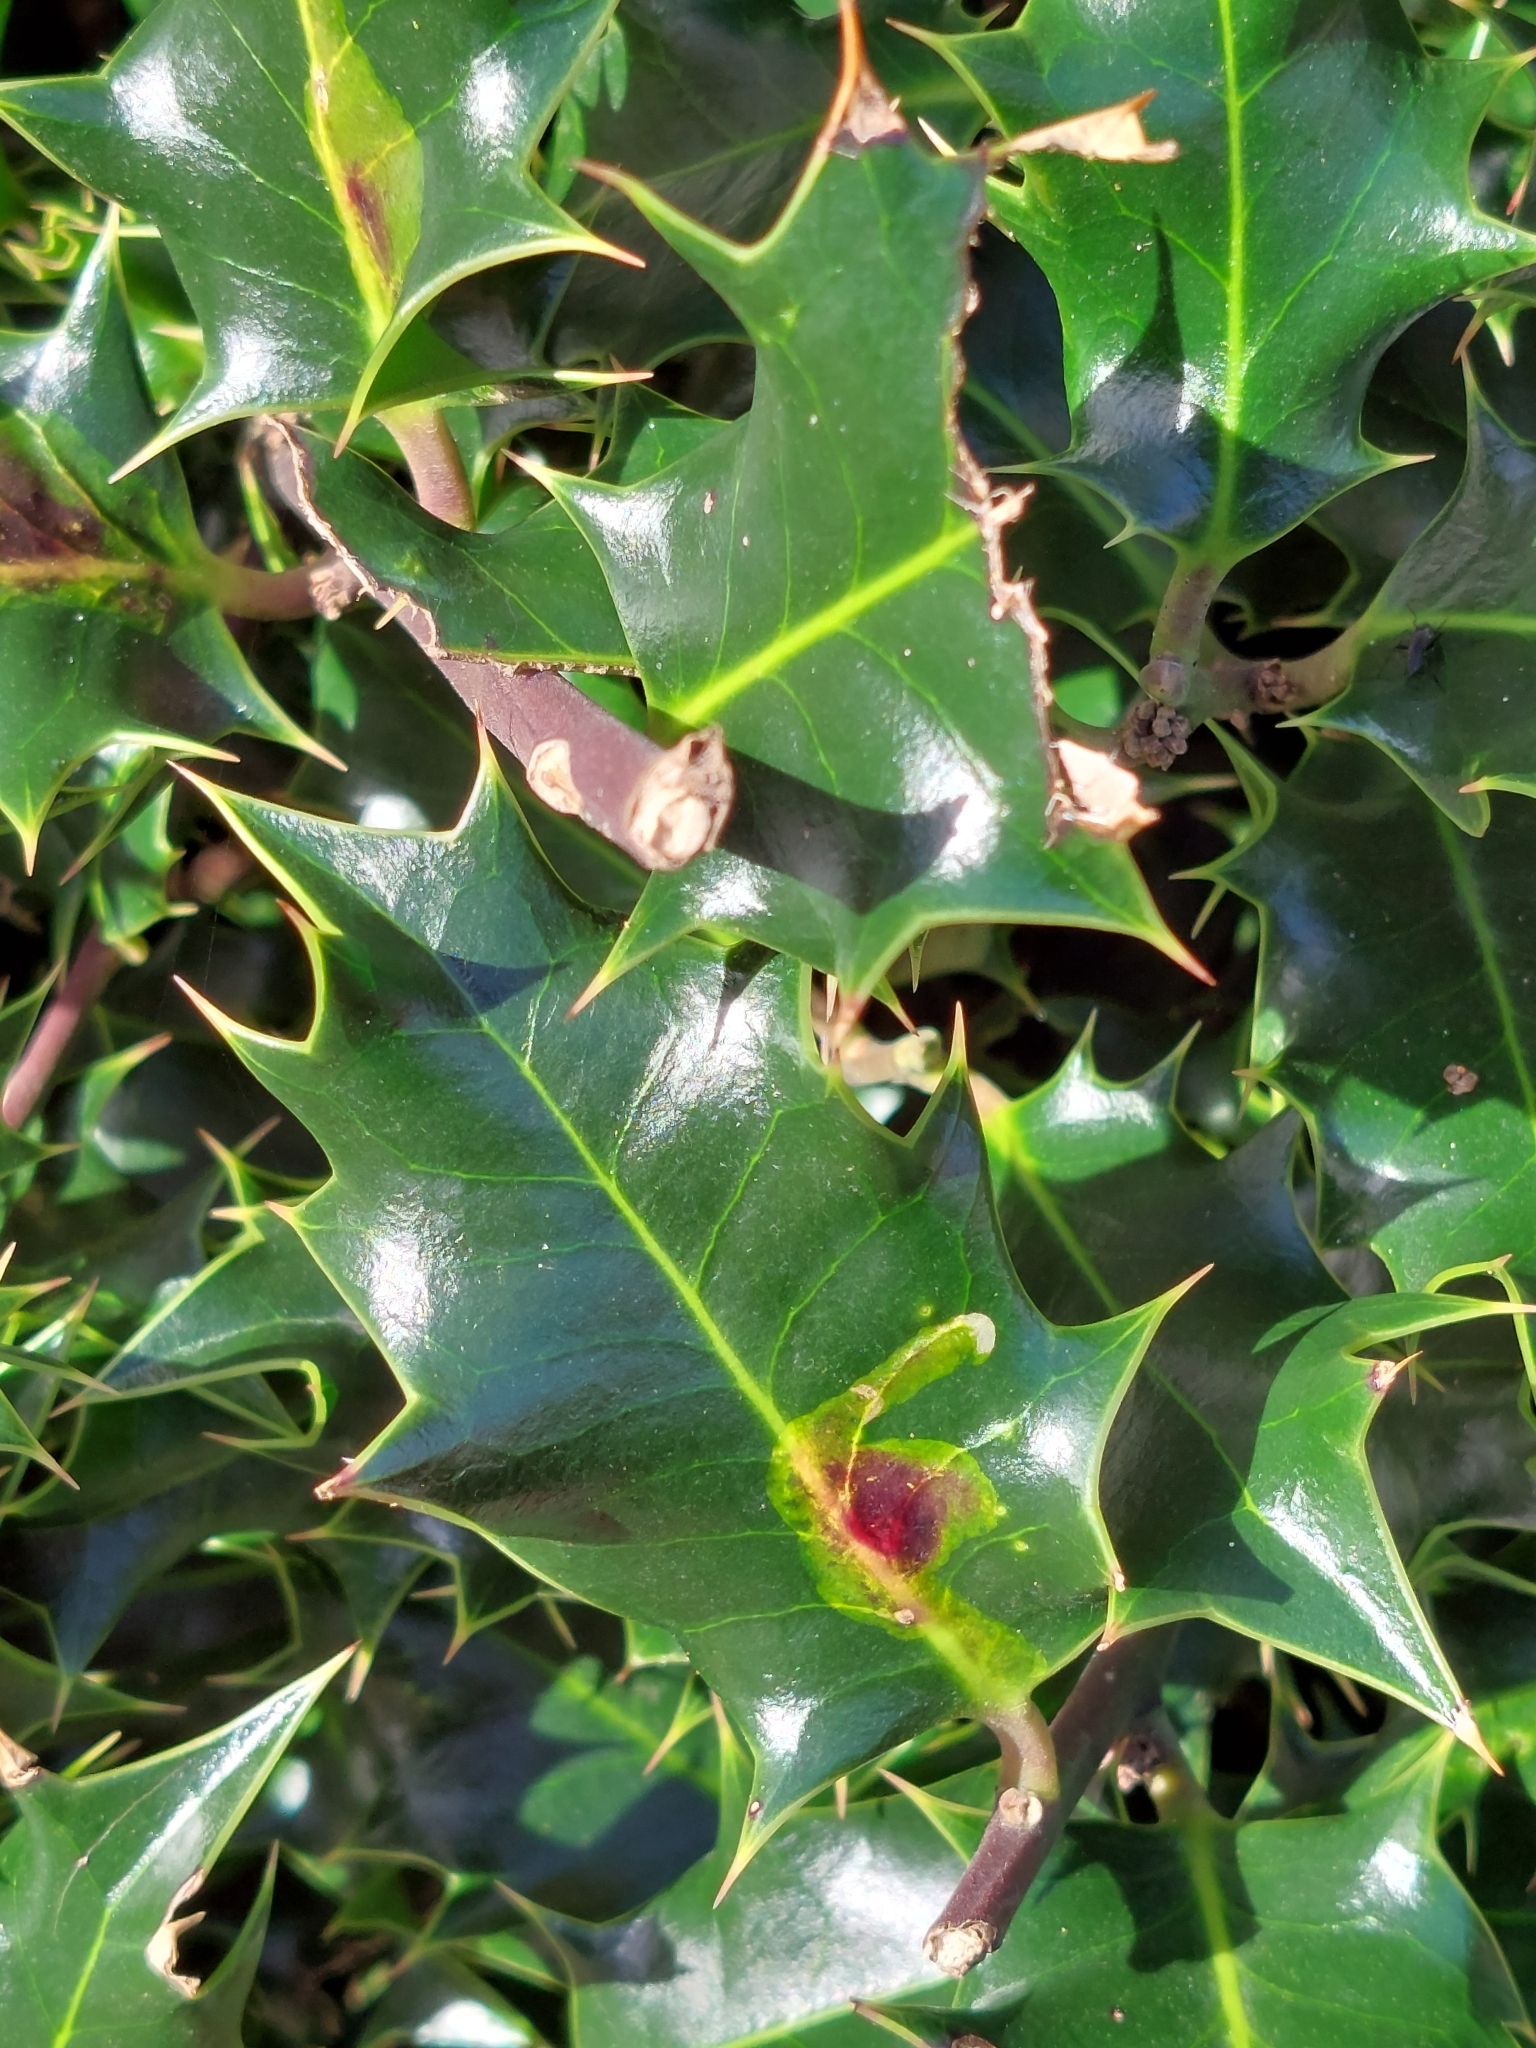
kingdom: Animalia
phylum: Arthropoda
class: Insecta
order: Diptera
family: Agromyzidae
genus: Phytomyza
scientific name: Phytomyza ilicis
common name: Holly leafminer
